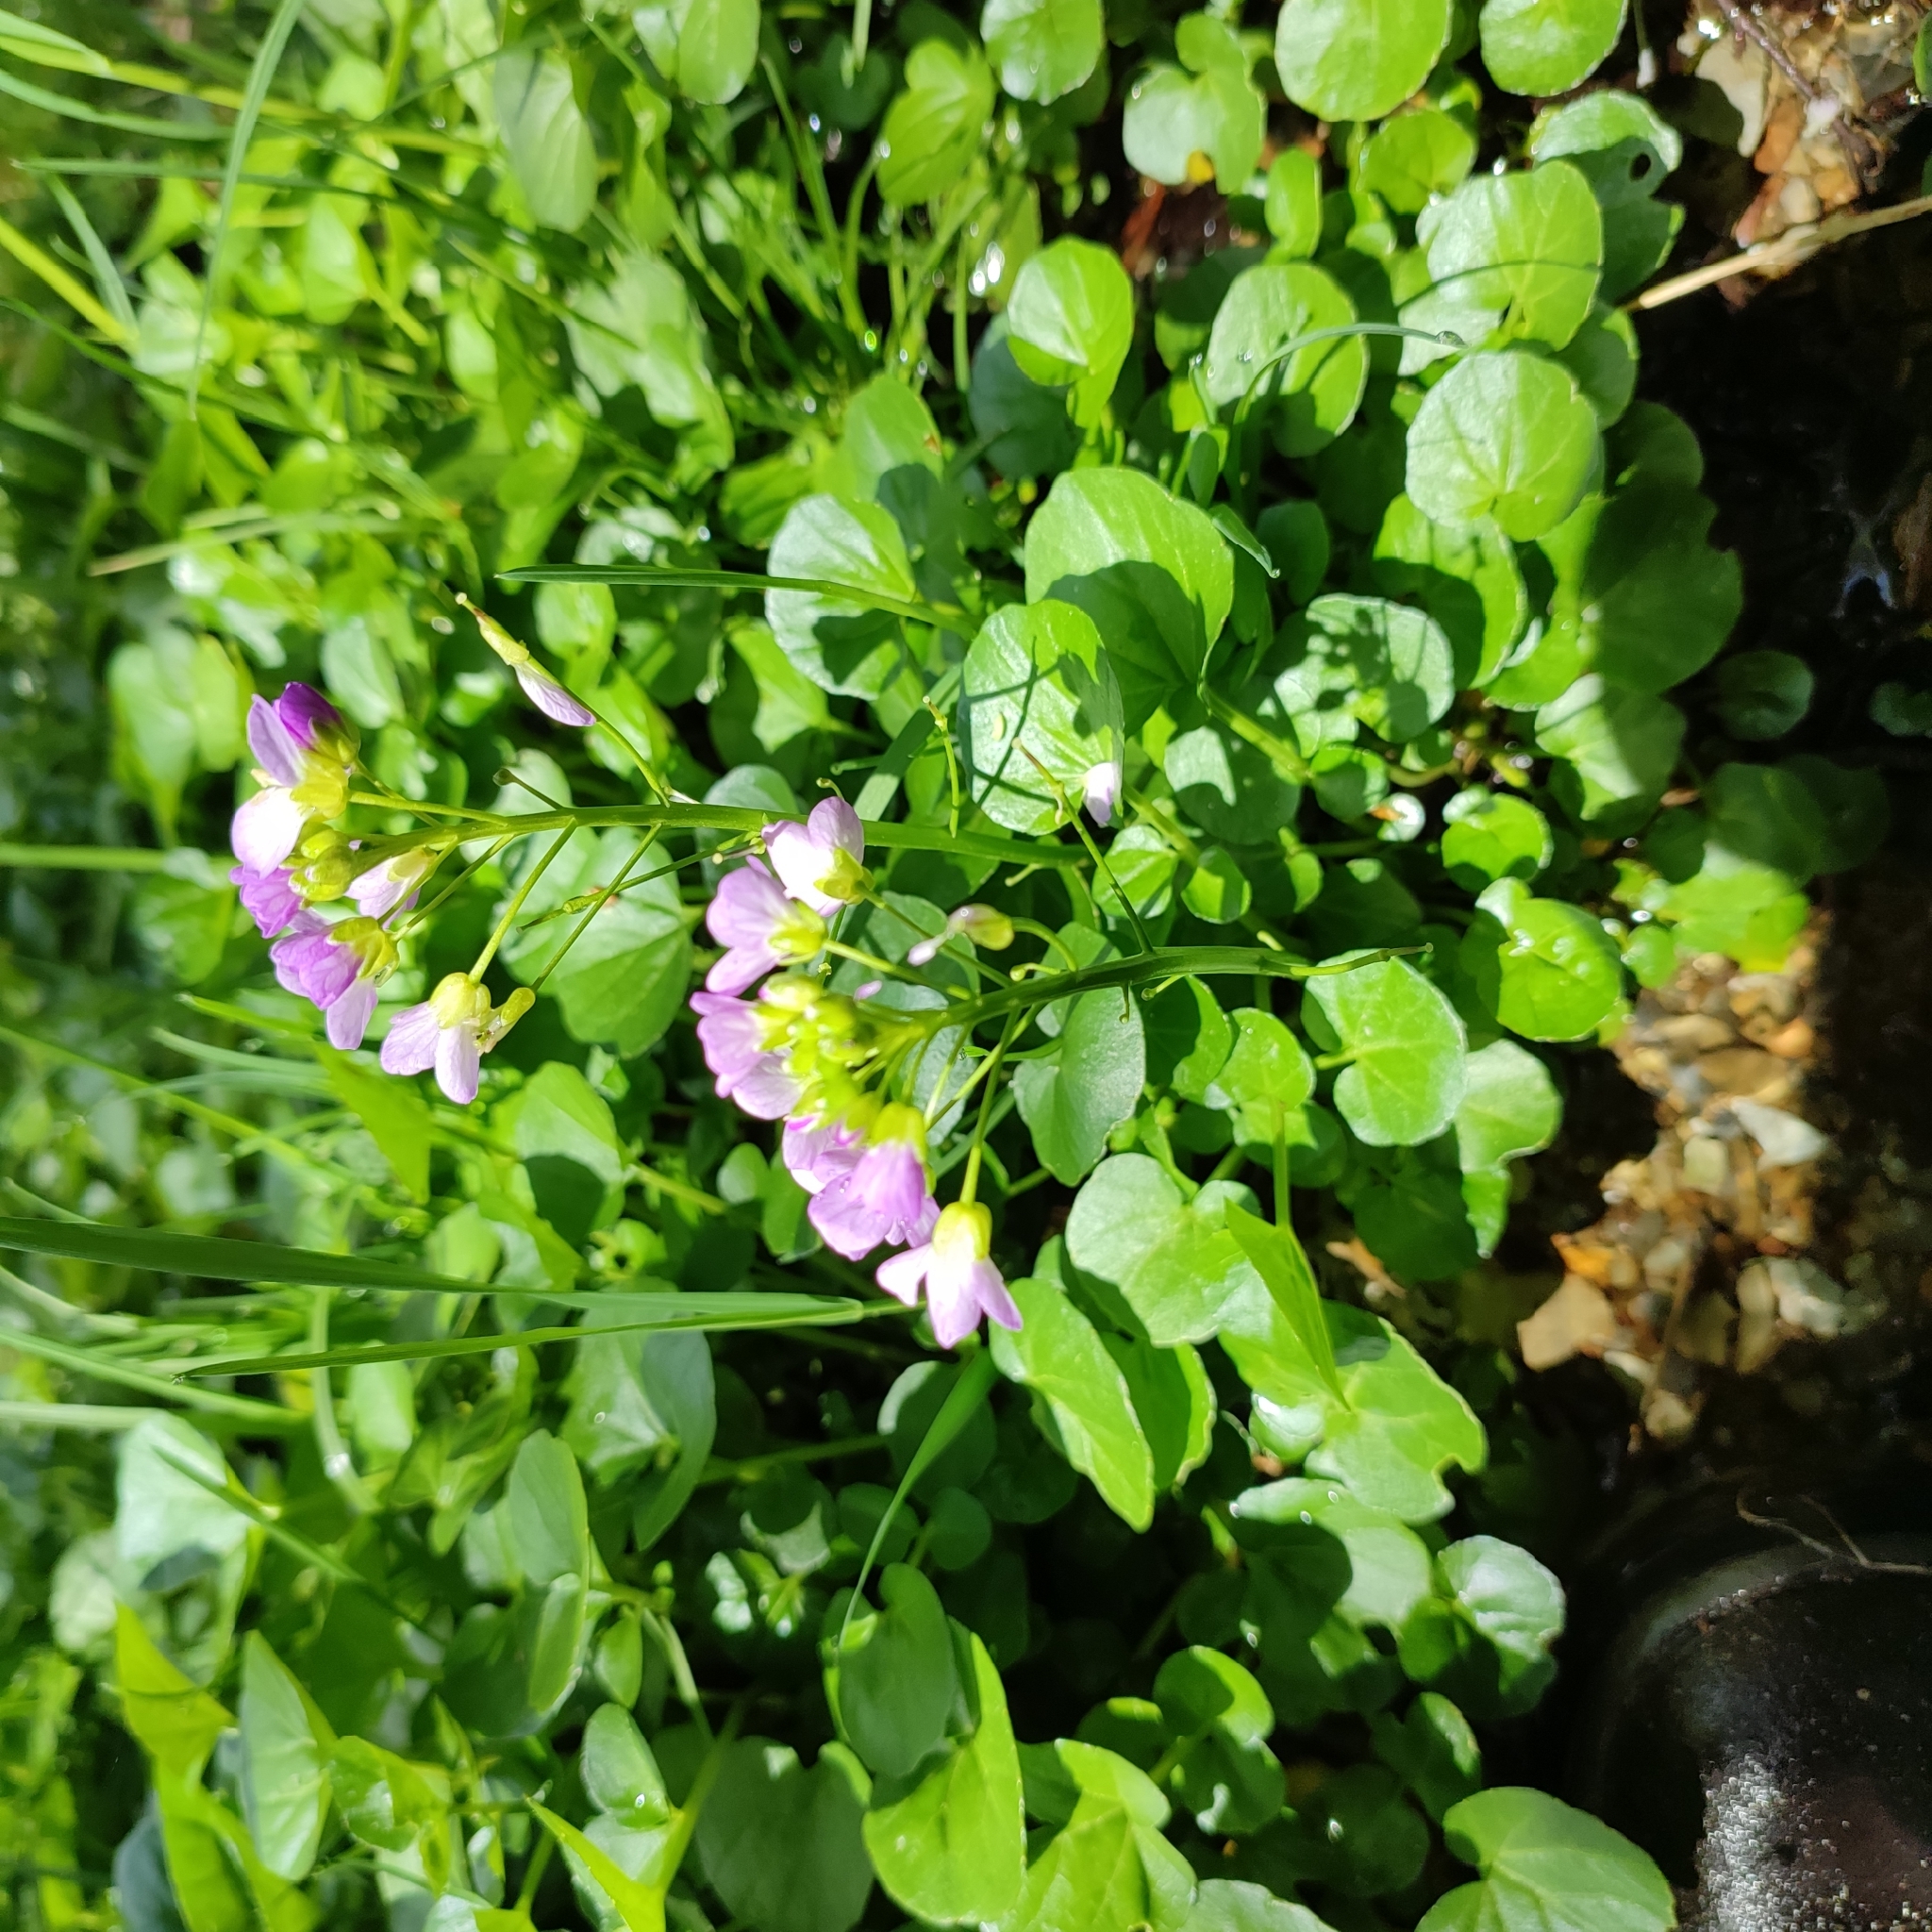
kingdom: Plantae
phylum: Tracheophyta
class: Magnoliopsida
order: Brassicales
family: Brassicaceae
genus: Cardamine
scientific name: Cardamine raphanifolia
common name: Greater cuckooflower
